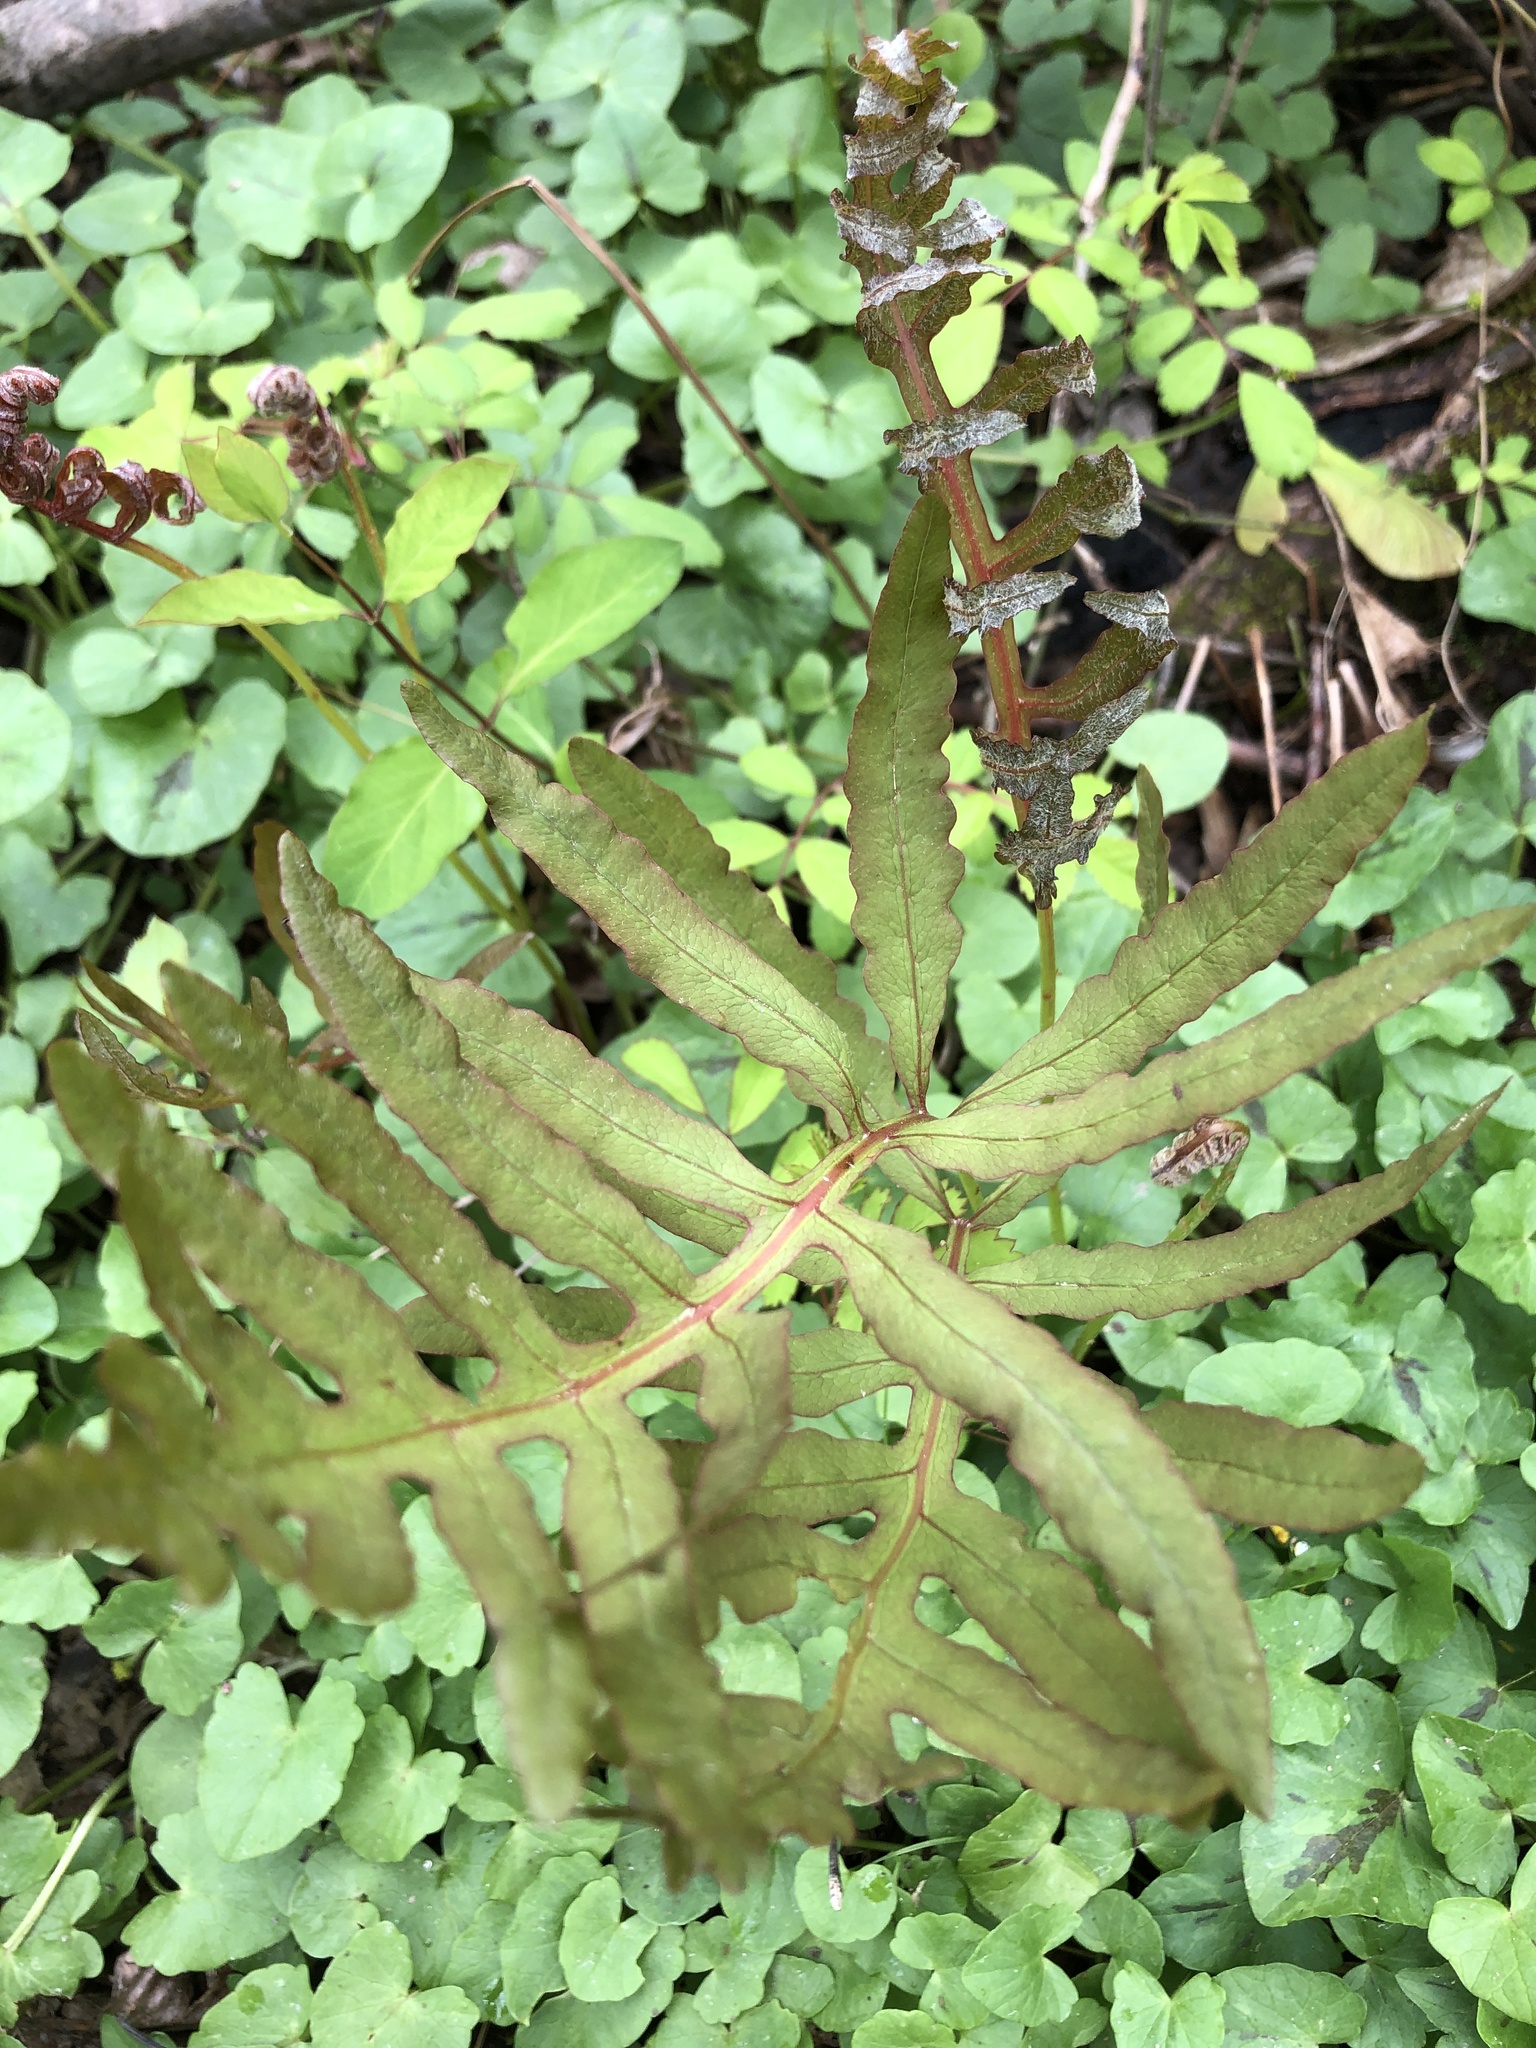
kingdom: Plantae
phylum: Tracheophyta
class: Polypodiopsida
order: Polypodiales
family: Onocleaceae
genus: Onoclea
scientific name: Onoclea sensibilis
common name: Sensitive fern
